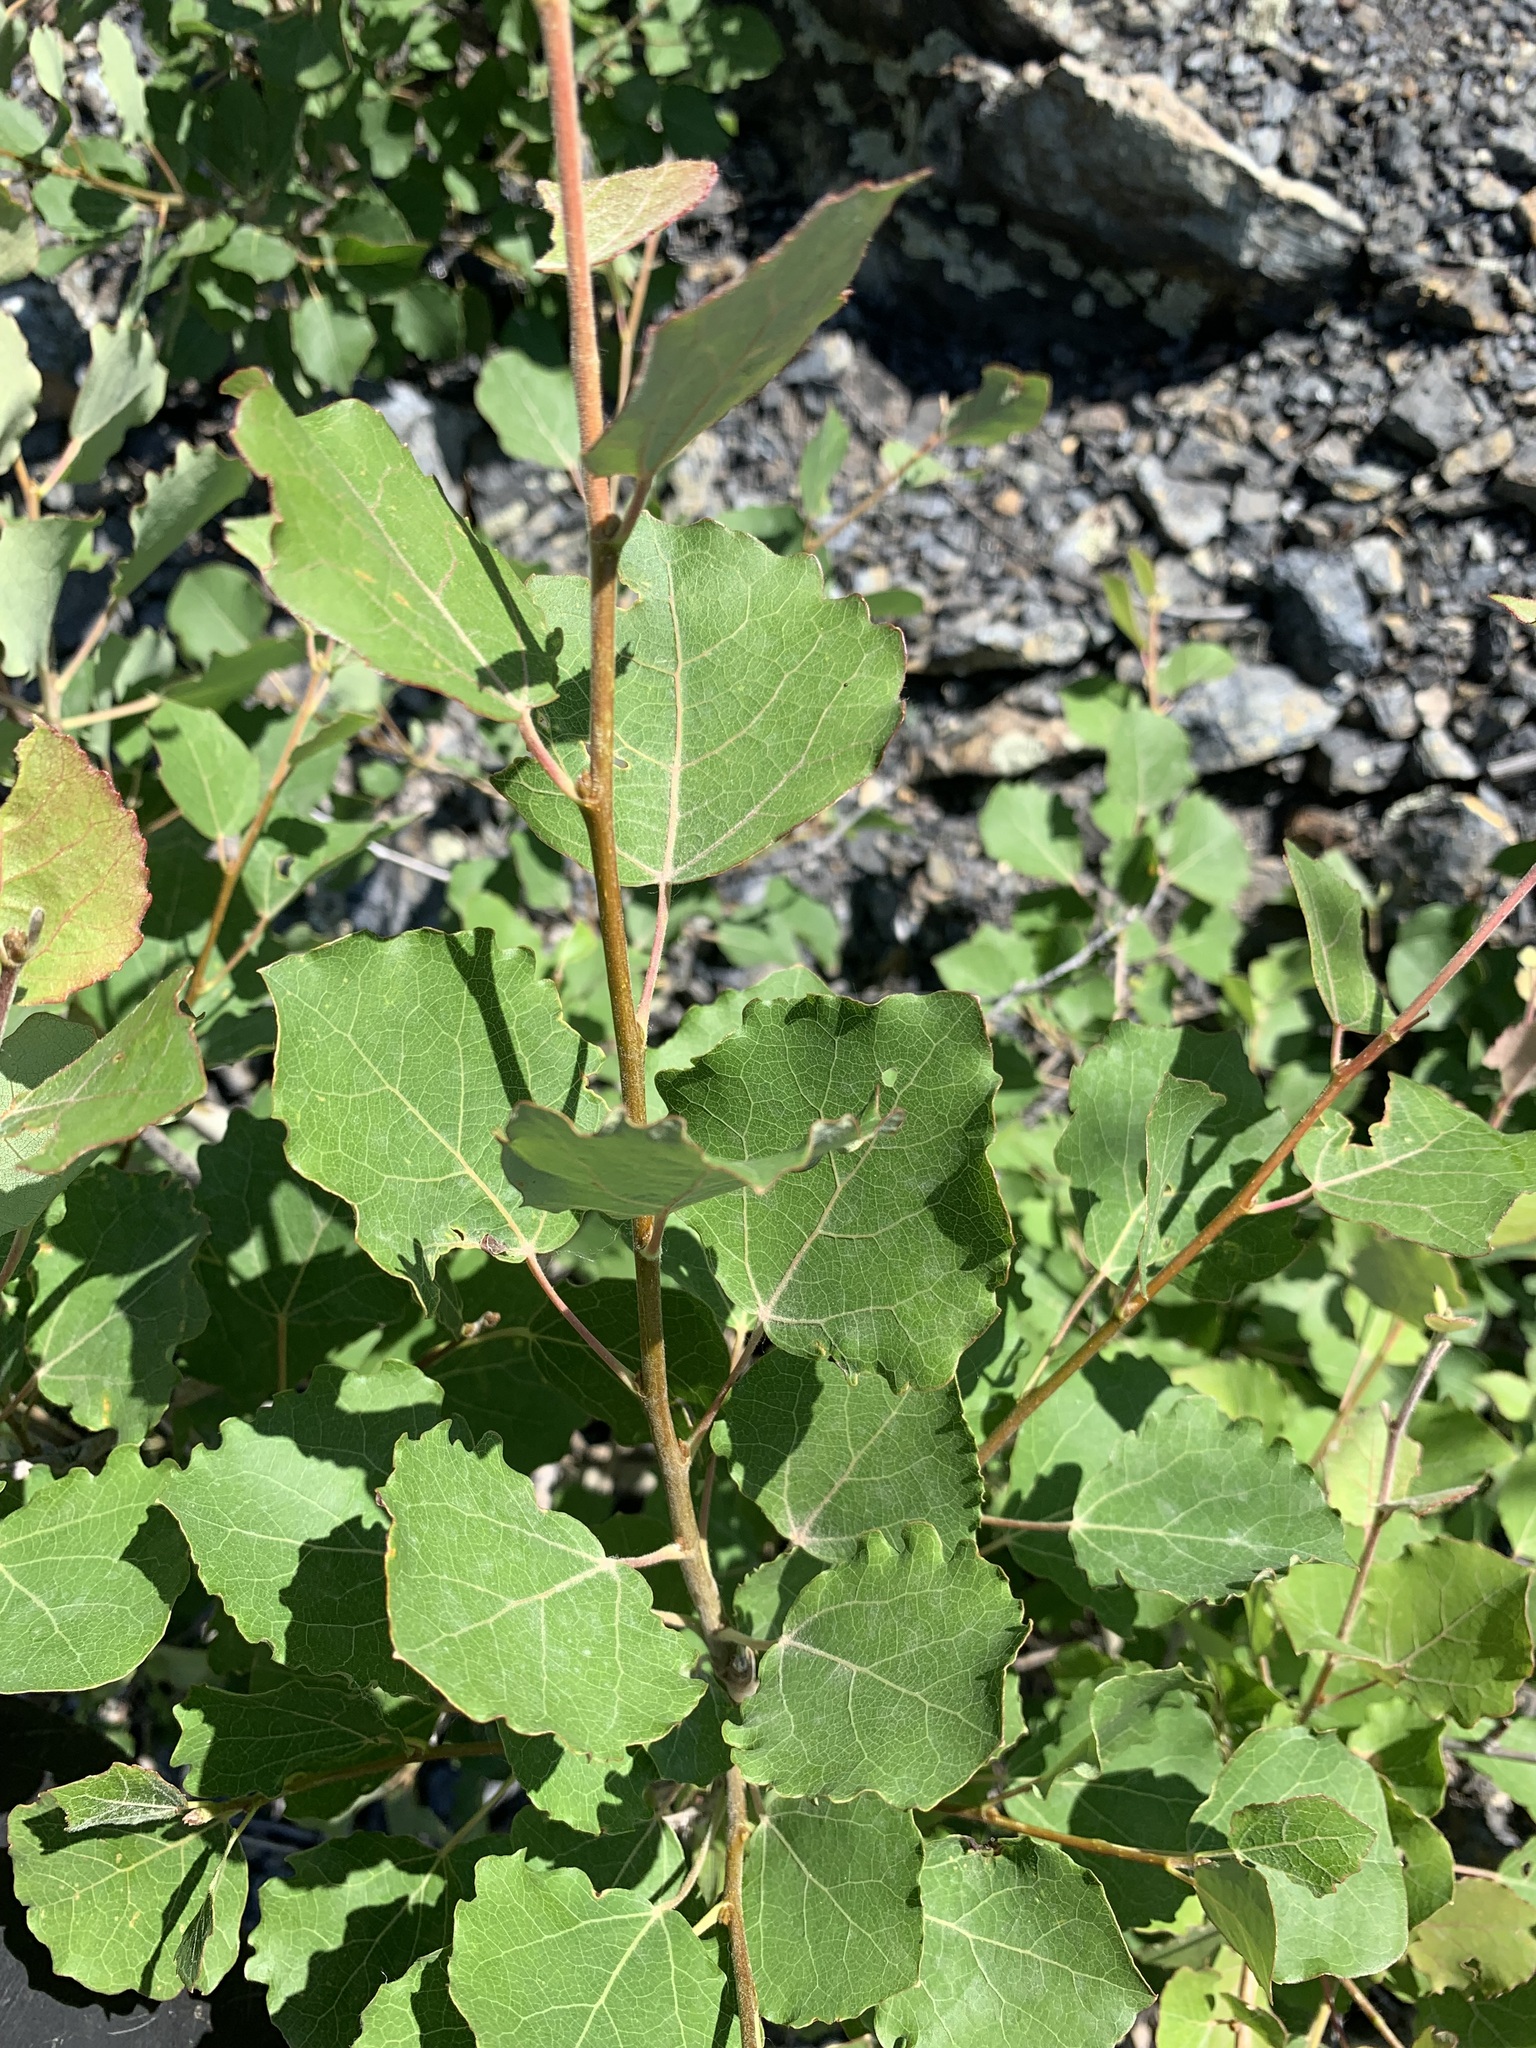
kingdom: Plantae
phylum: Tracheophyta
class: Magnoliopsida
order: Malpighiales
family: Salicaceae
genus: Populus
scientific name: Populus tremula
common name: European aspen
